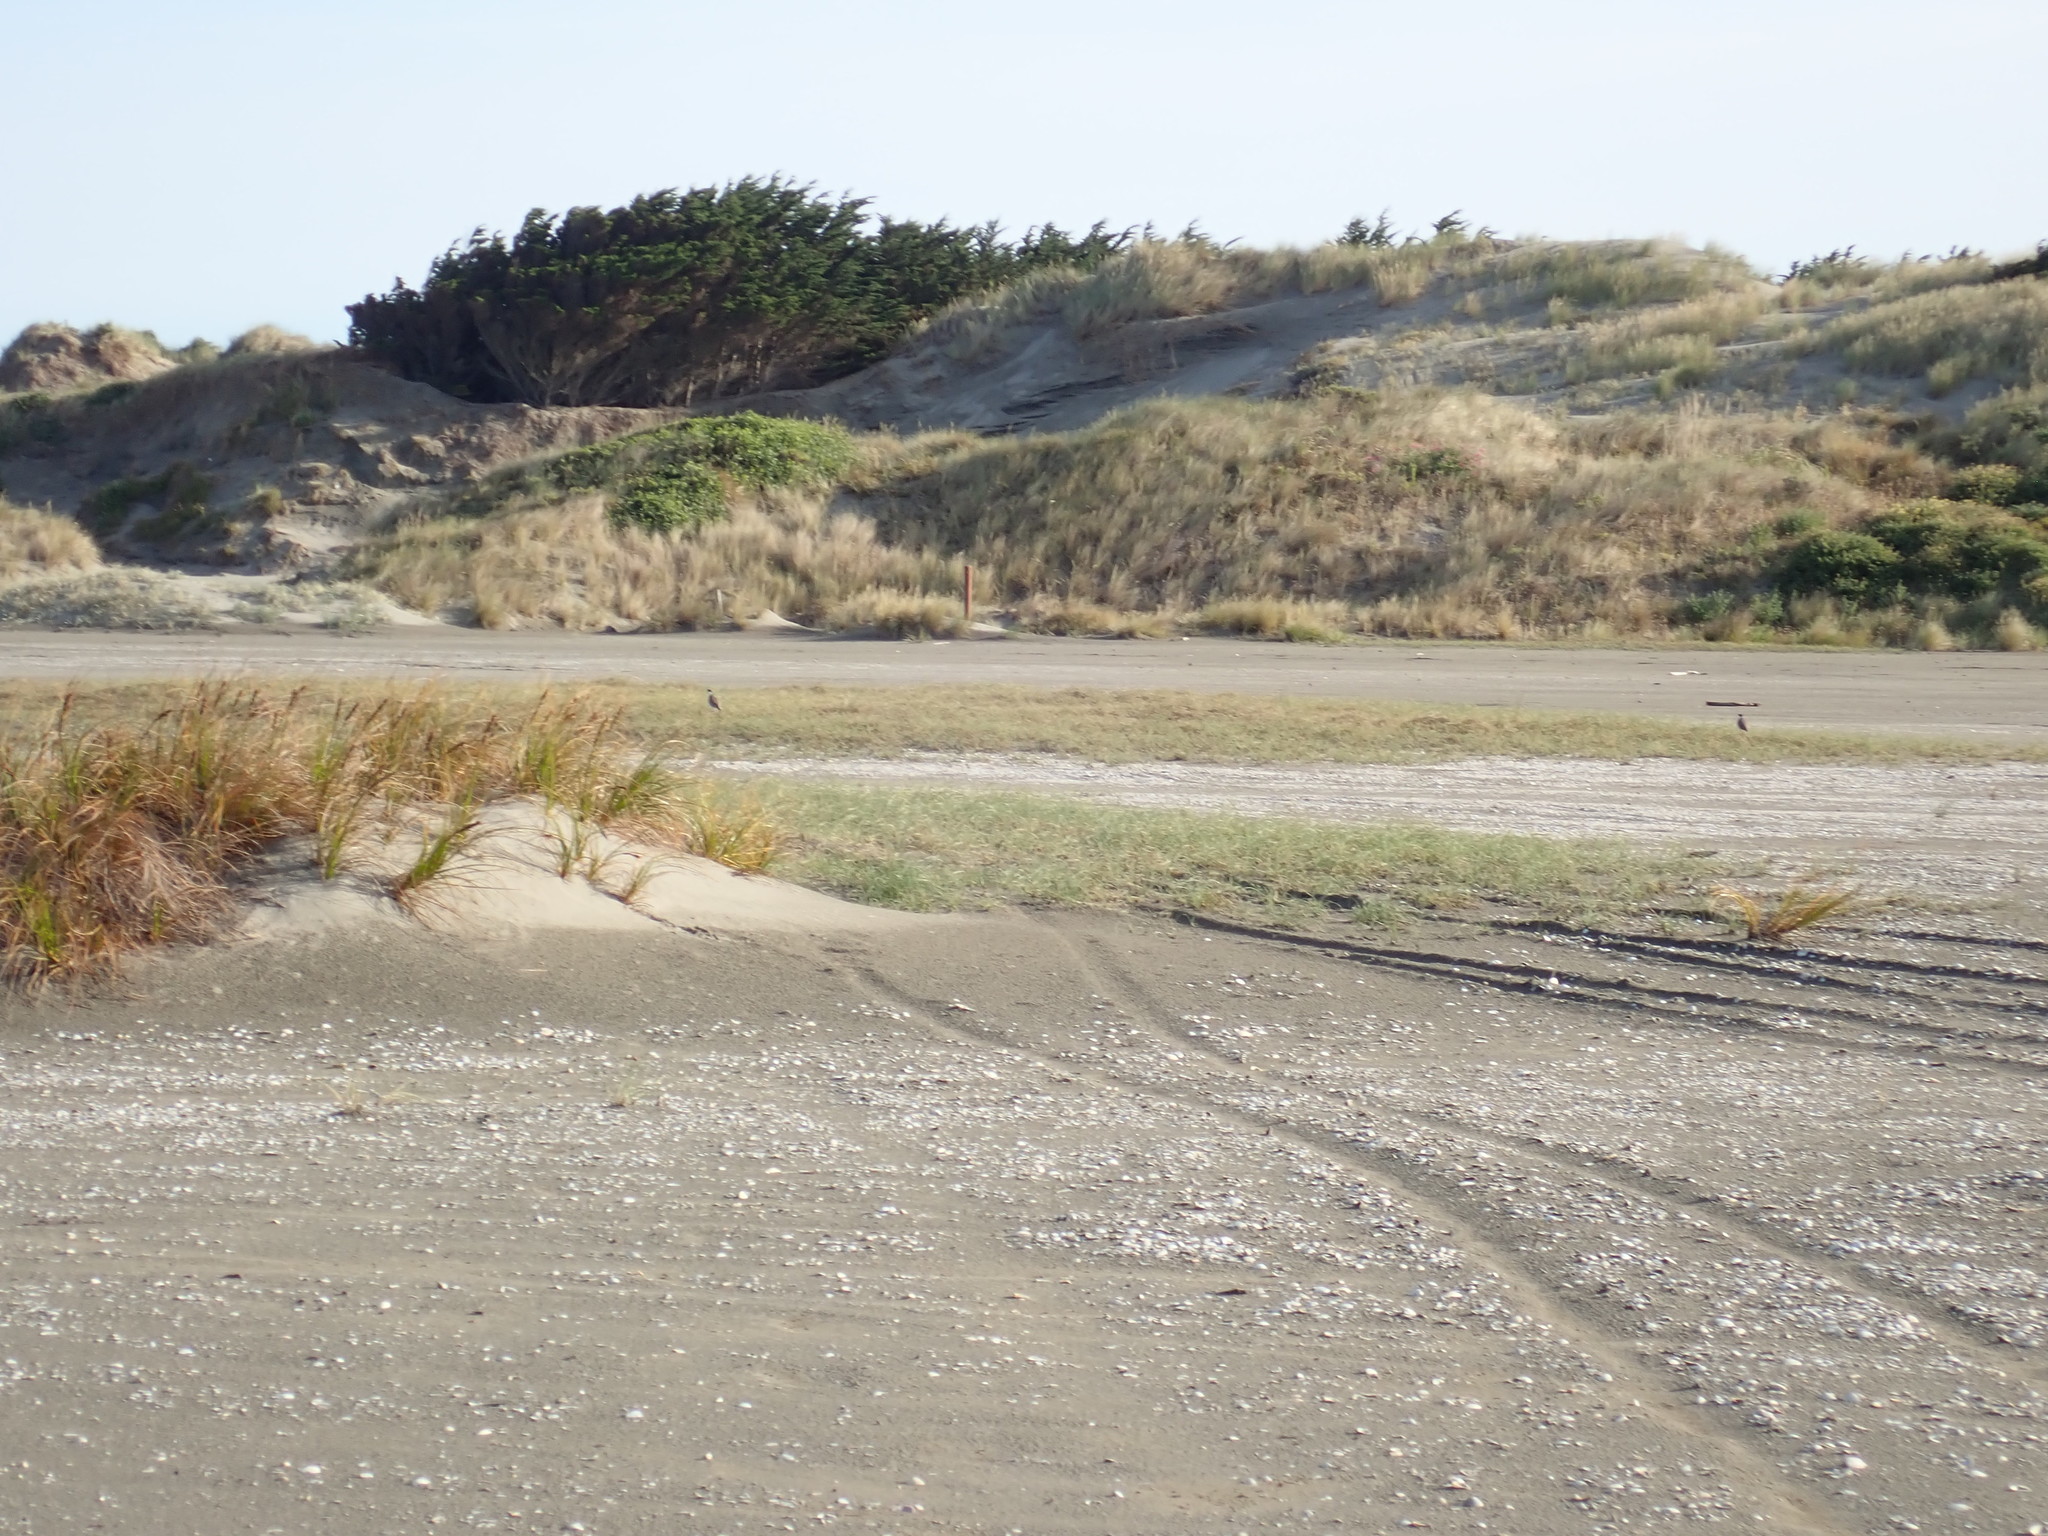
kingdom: Animalia
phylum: Chordata
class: Aves
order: Charadriiformes
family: Charadriidae
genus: Vanellus
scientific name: Vanellus miles
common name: Masked lapwing
